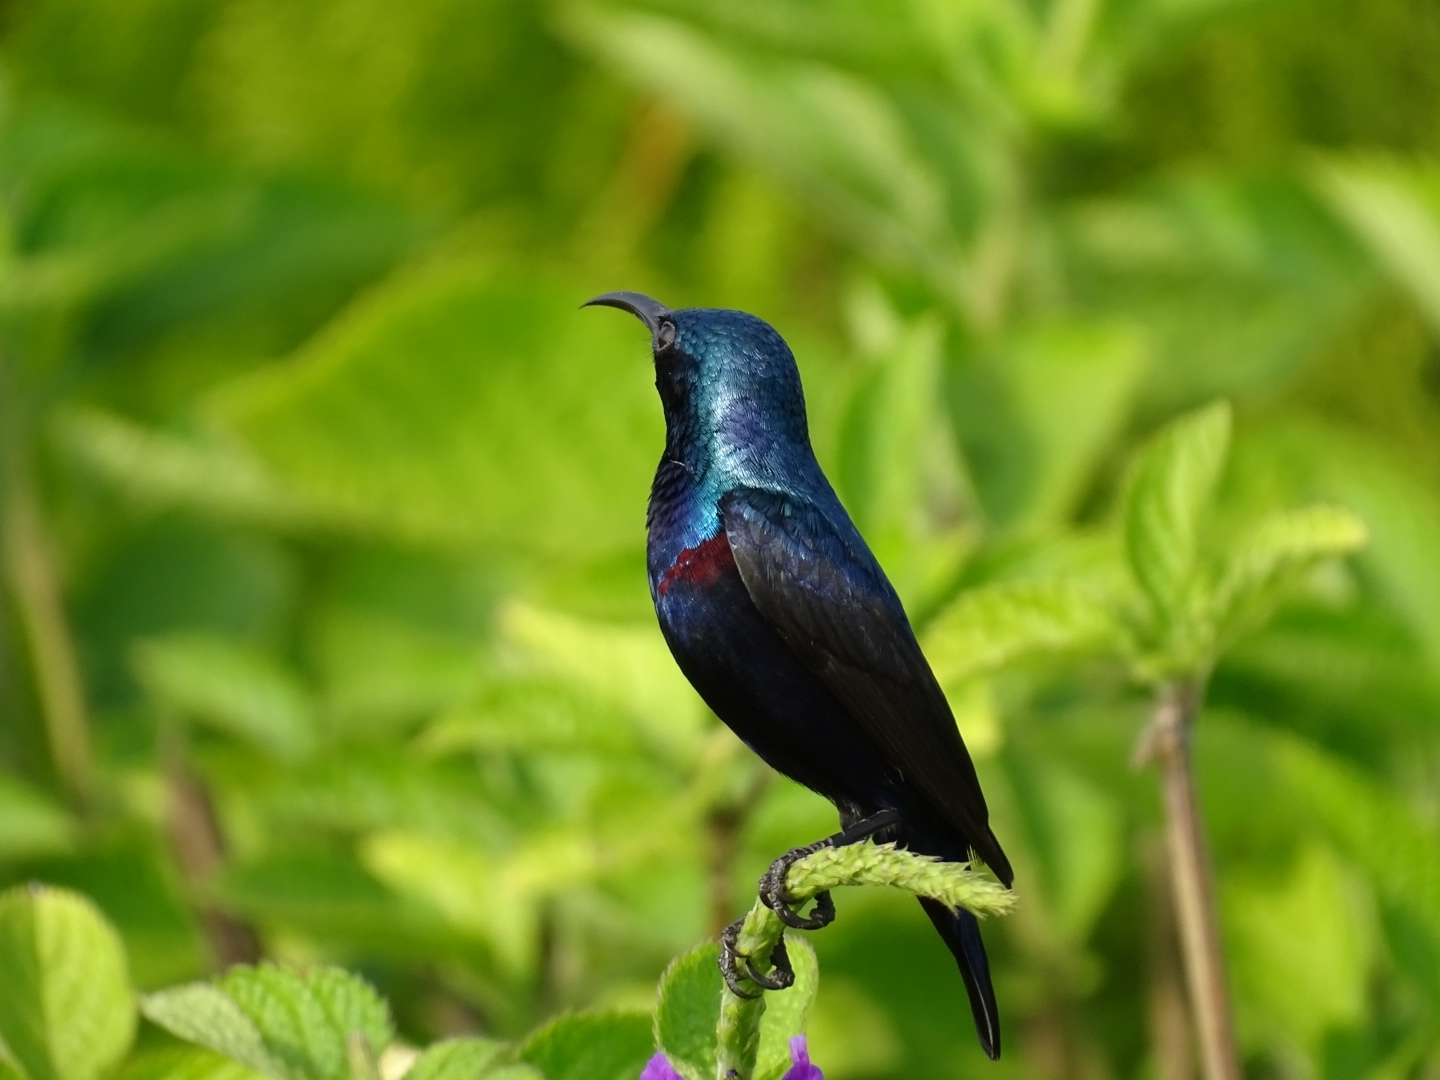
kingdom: Animalia
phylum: Chordata
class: Aves
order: Passeriformes
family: Nectariniidae
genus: Cinnyris
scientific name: Cinnyris asiaticus
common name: Purple sunbird
